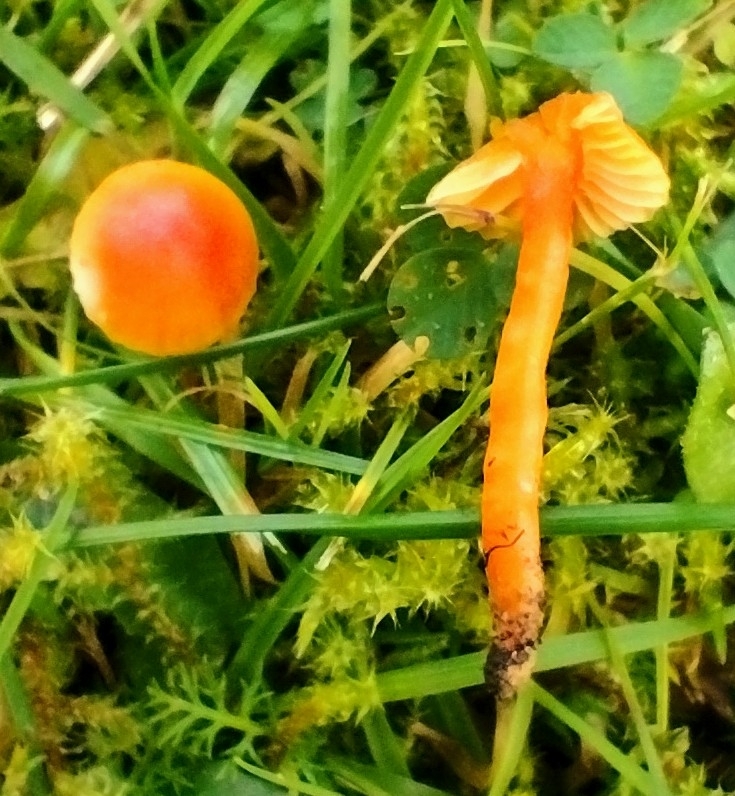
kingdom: Fungi
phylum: Basidiomycota
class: Agaricomycetes
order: Agaricales
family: Hygrophoraceae
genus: Hygrocybe
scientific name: Hygrocybe mucronella
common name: Bitter waxcap
